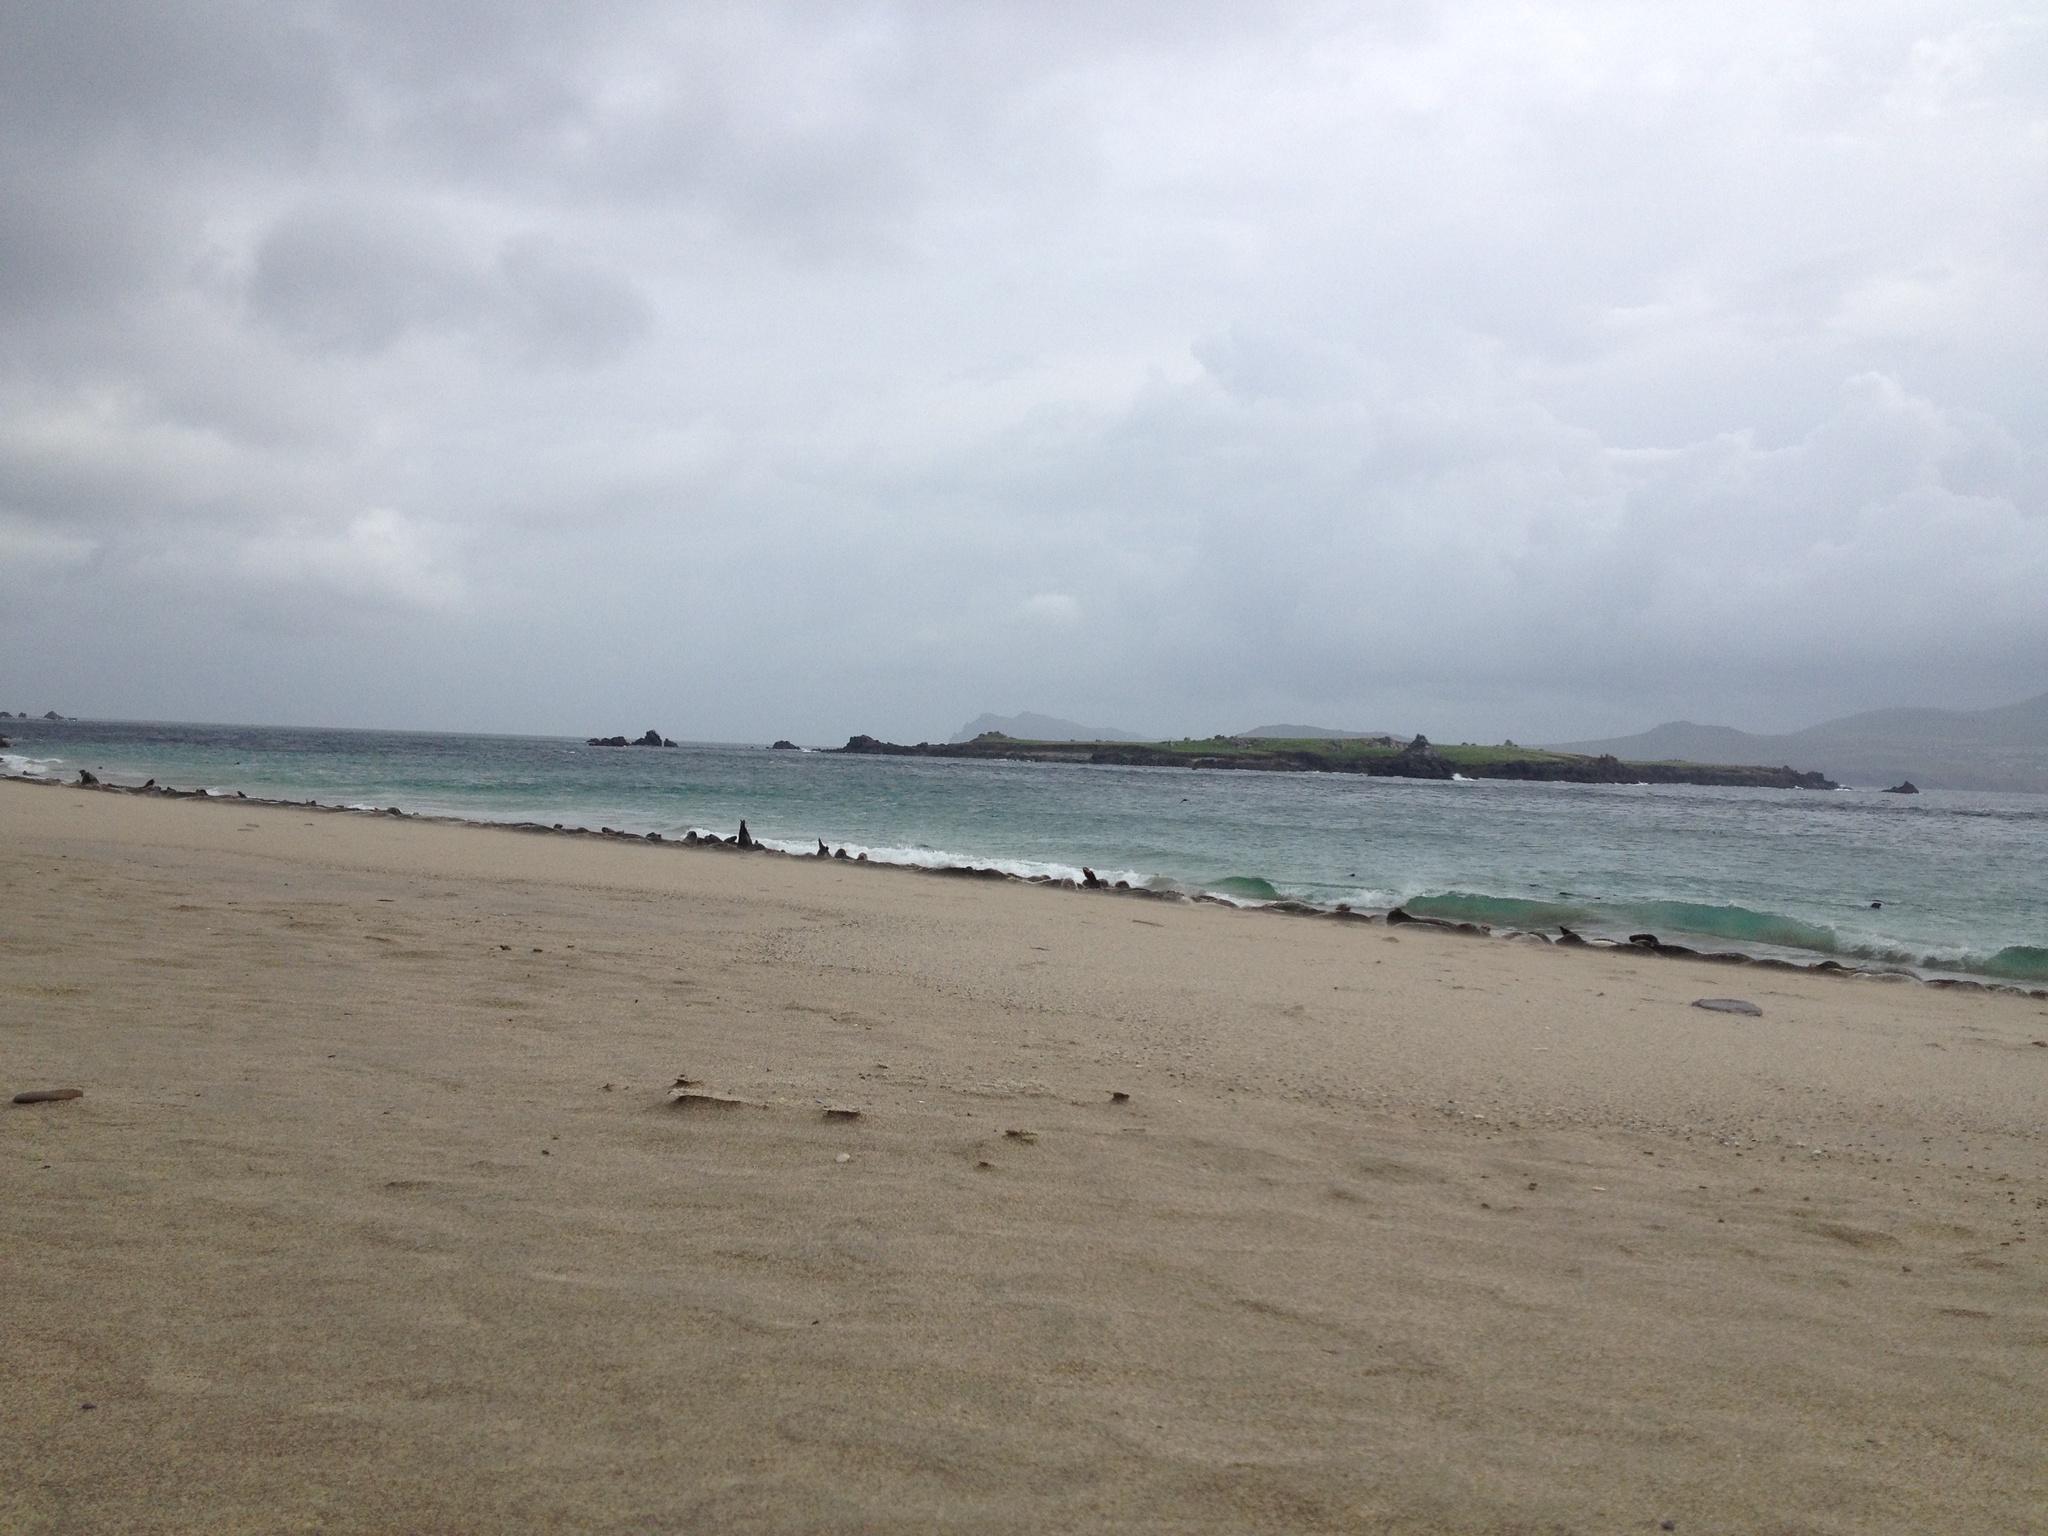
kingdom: Animalia
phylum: Chordata
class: Mammalia
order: Carnivora
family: Phocidae
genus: Halichoerus
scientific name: Halichoerus grypus
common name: Grey seal
